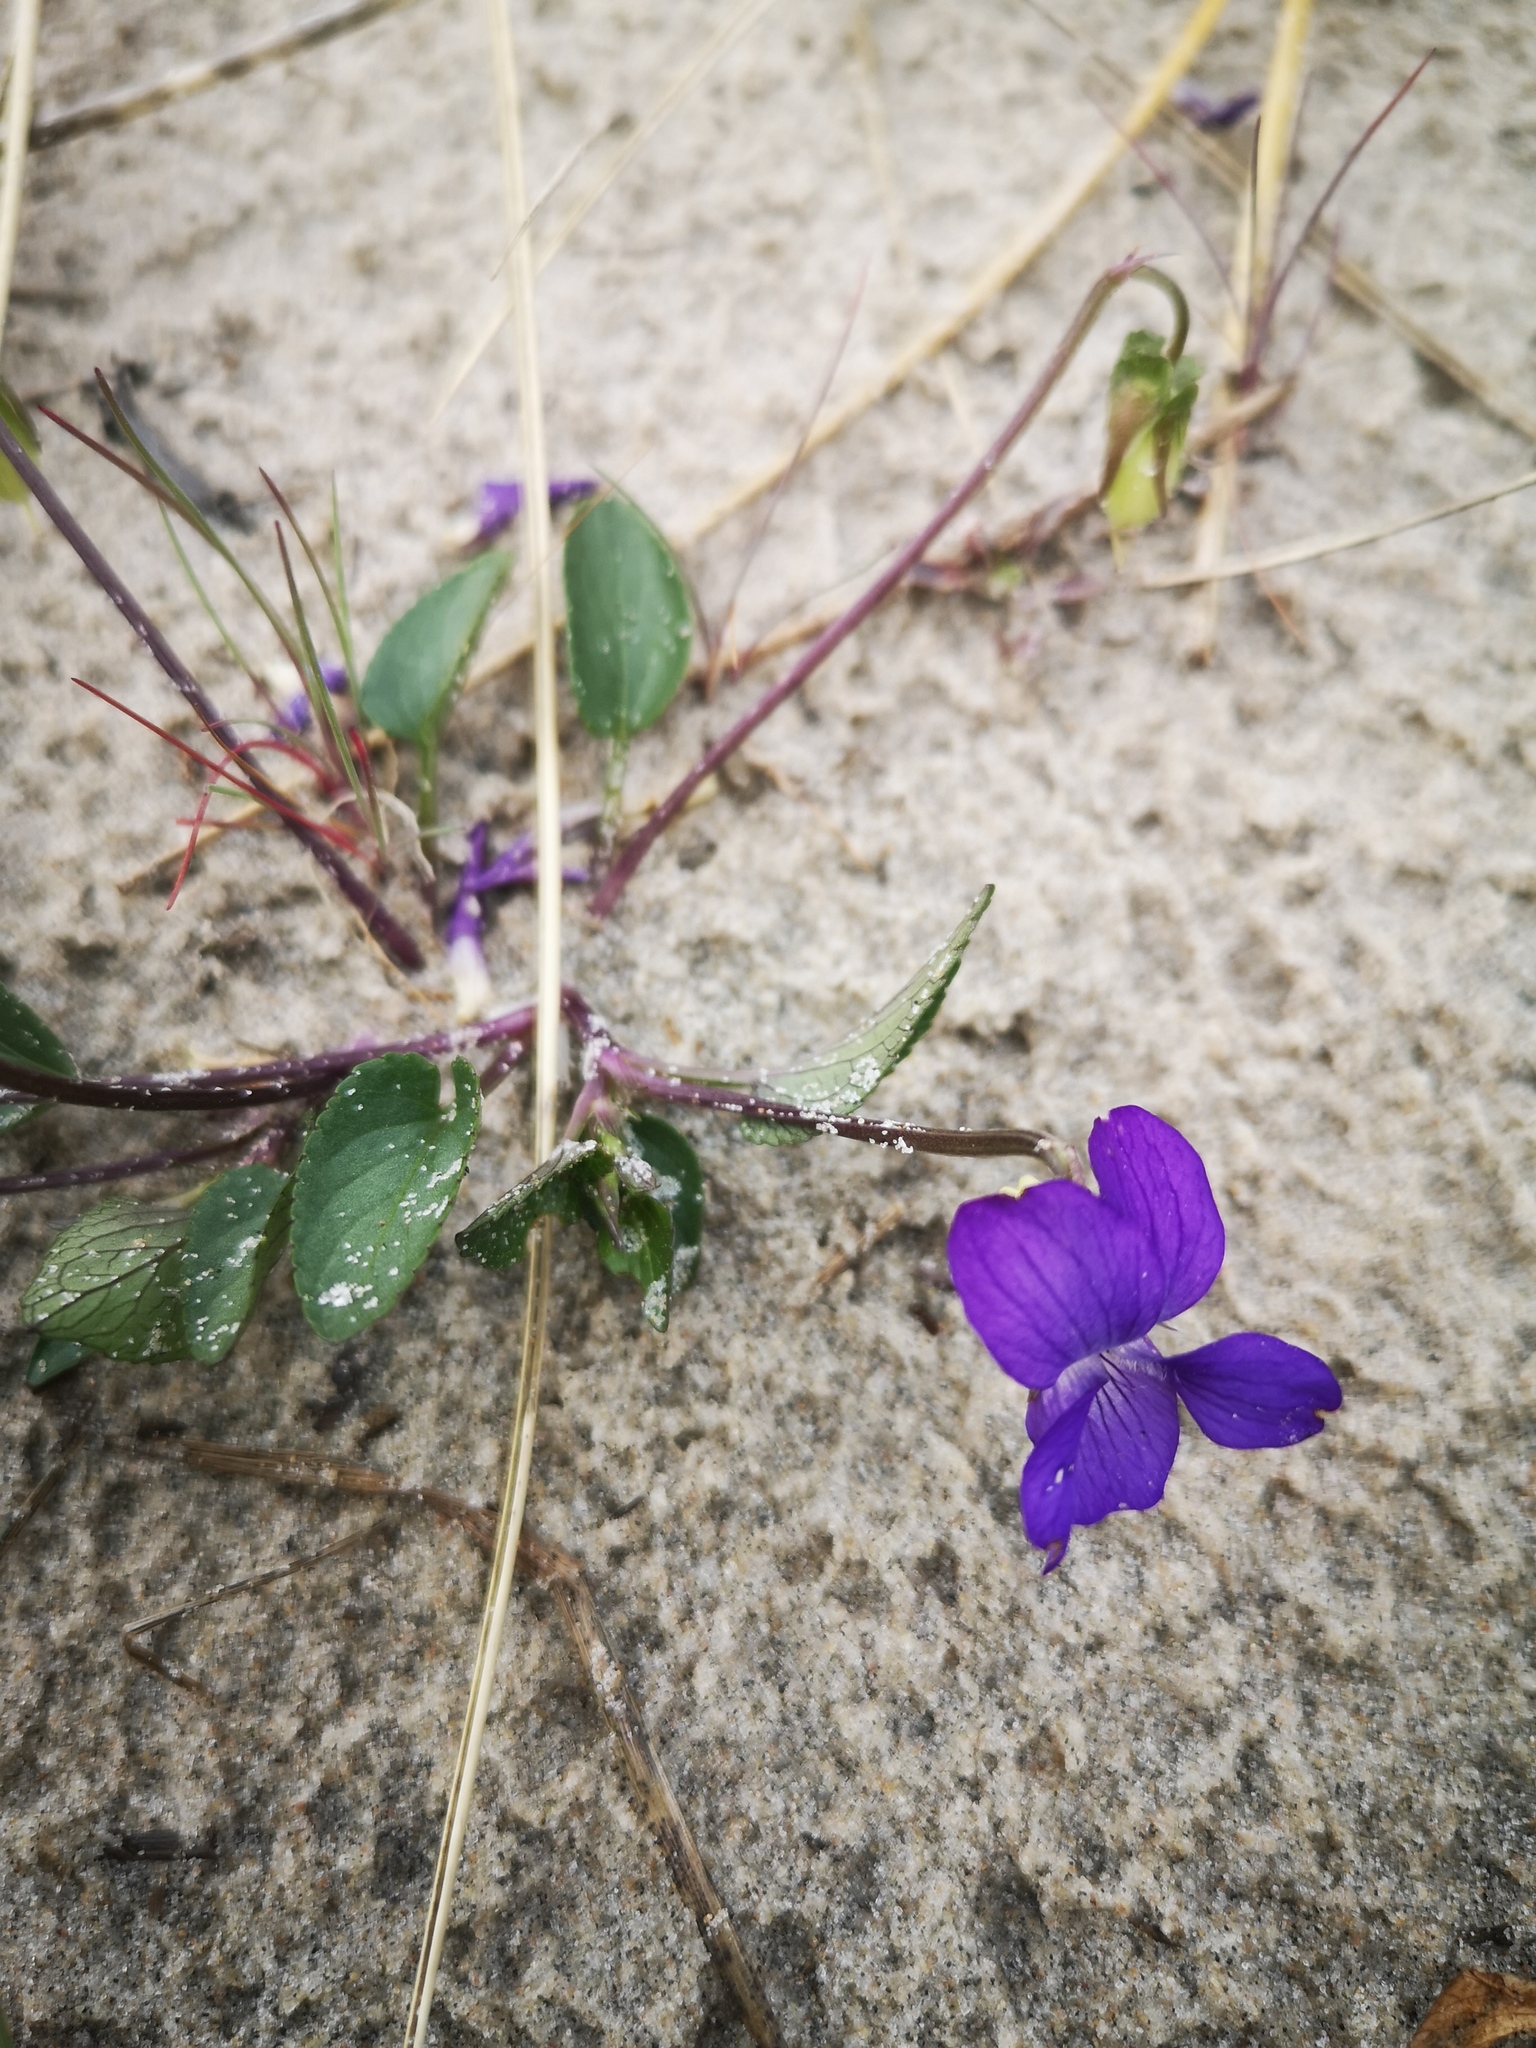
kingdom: Plantae
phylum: Tracheophyta
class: Magnoliopsida
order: Malpighiales
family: Violaceae
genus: Viola
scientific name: Viola canina
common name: Heath dog-violet
